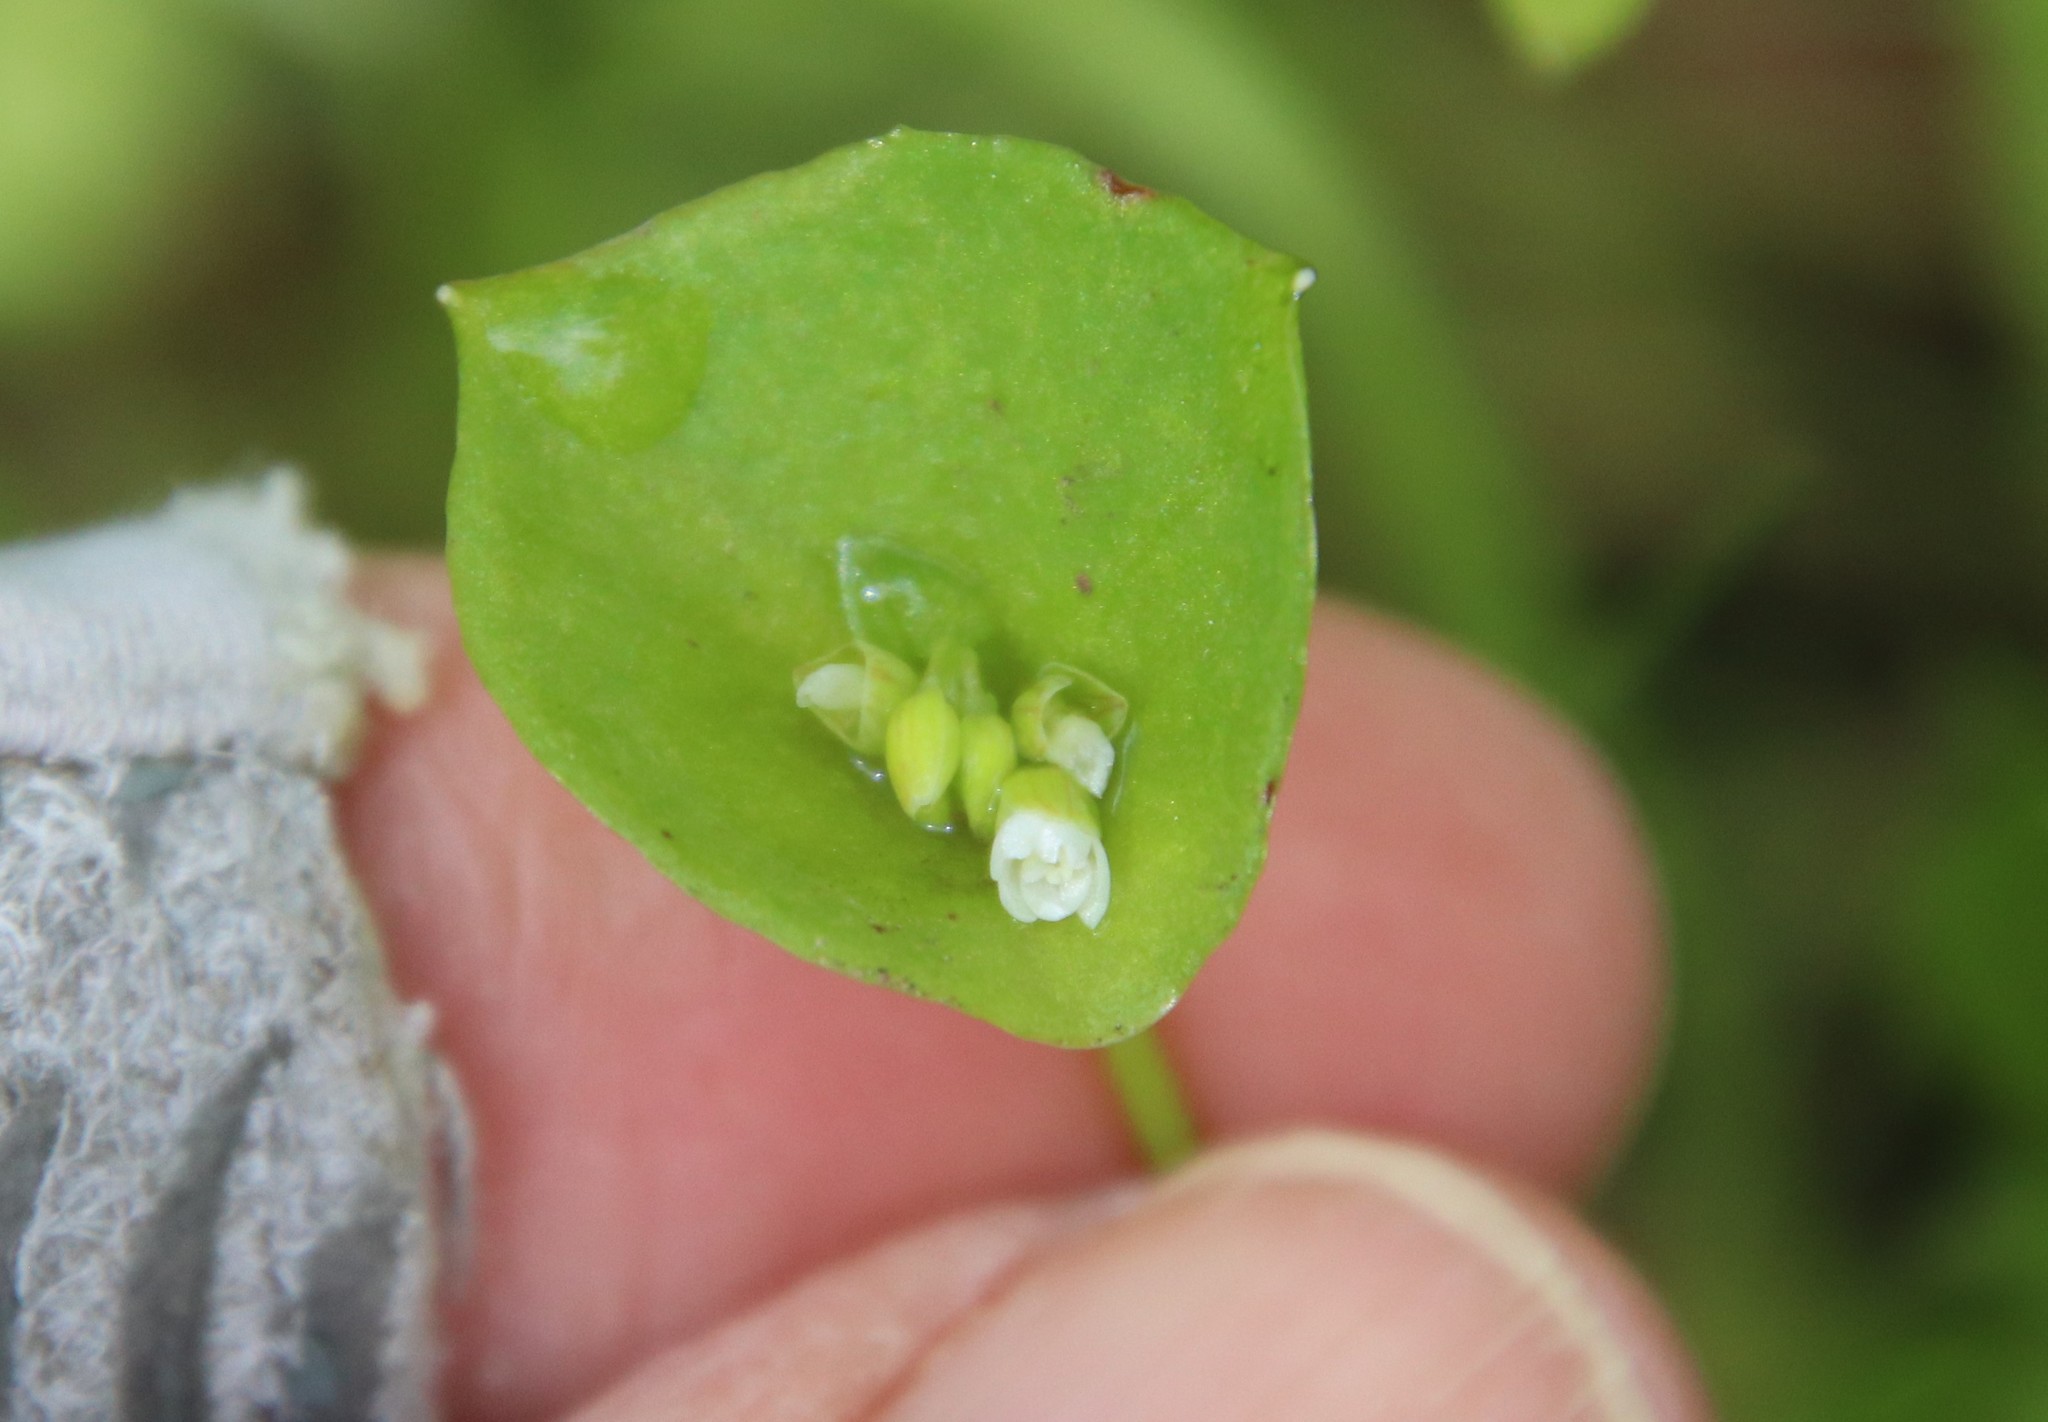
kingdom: Plantae
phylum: Tracheophyta
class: Magnoliopsida
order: Caryophyllales
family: Montiaceae
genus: Claytonia
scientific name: Claytonia perfoliata
